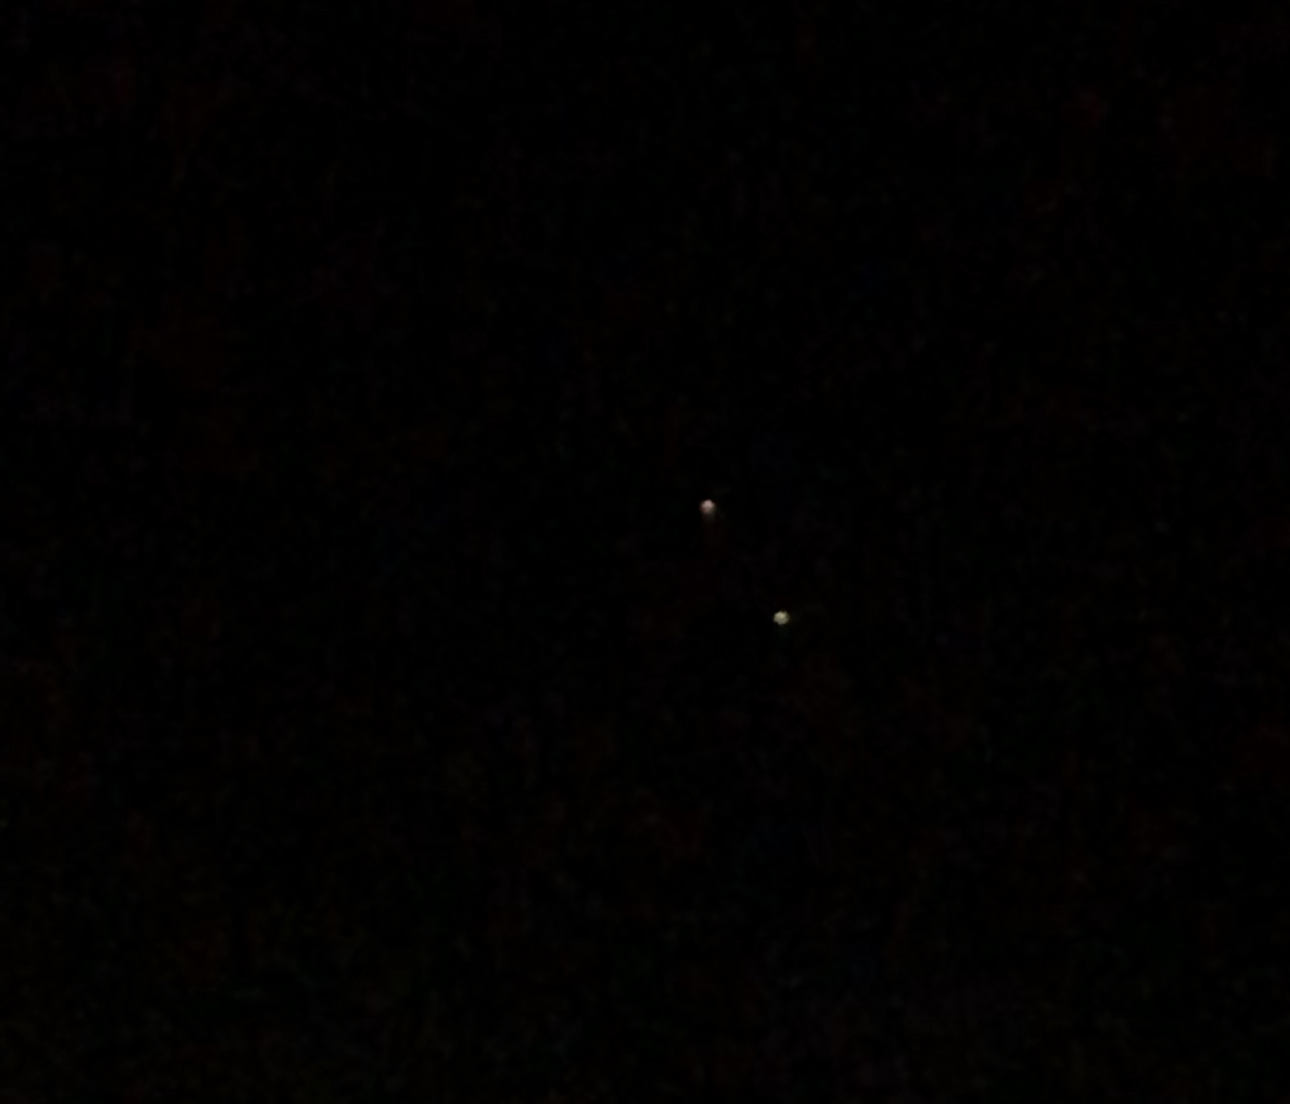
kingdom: Animalia
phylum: Chordata
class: Aves
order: Caprimulgiformes
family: Caprimulgidae
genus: Phalaenoptilus
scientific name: Phalaenoptilus nuttallii
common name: Common poorwill
